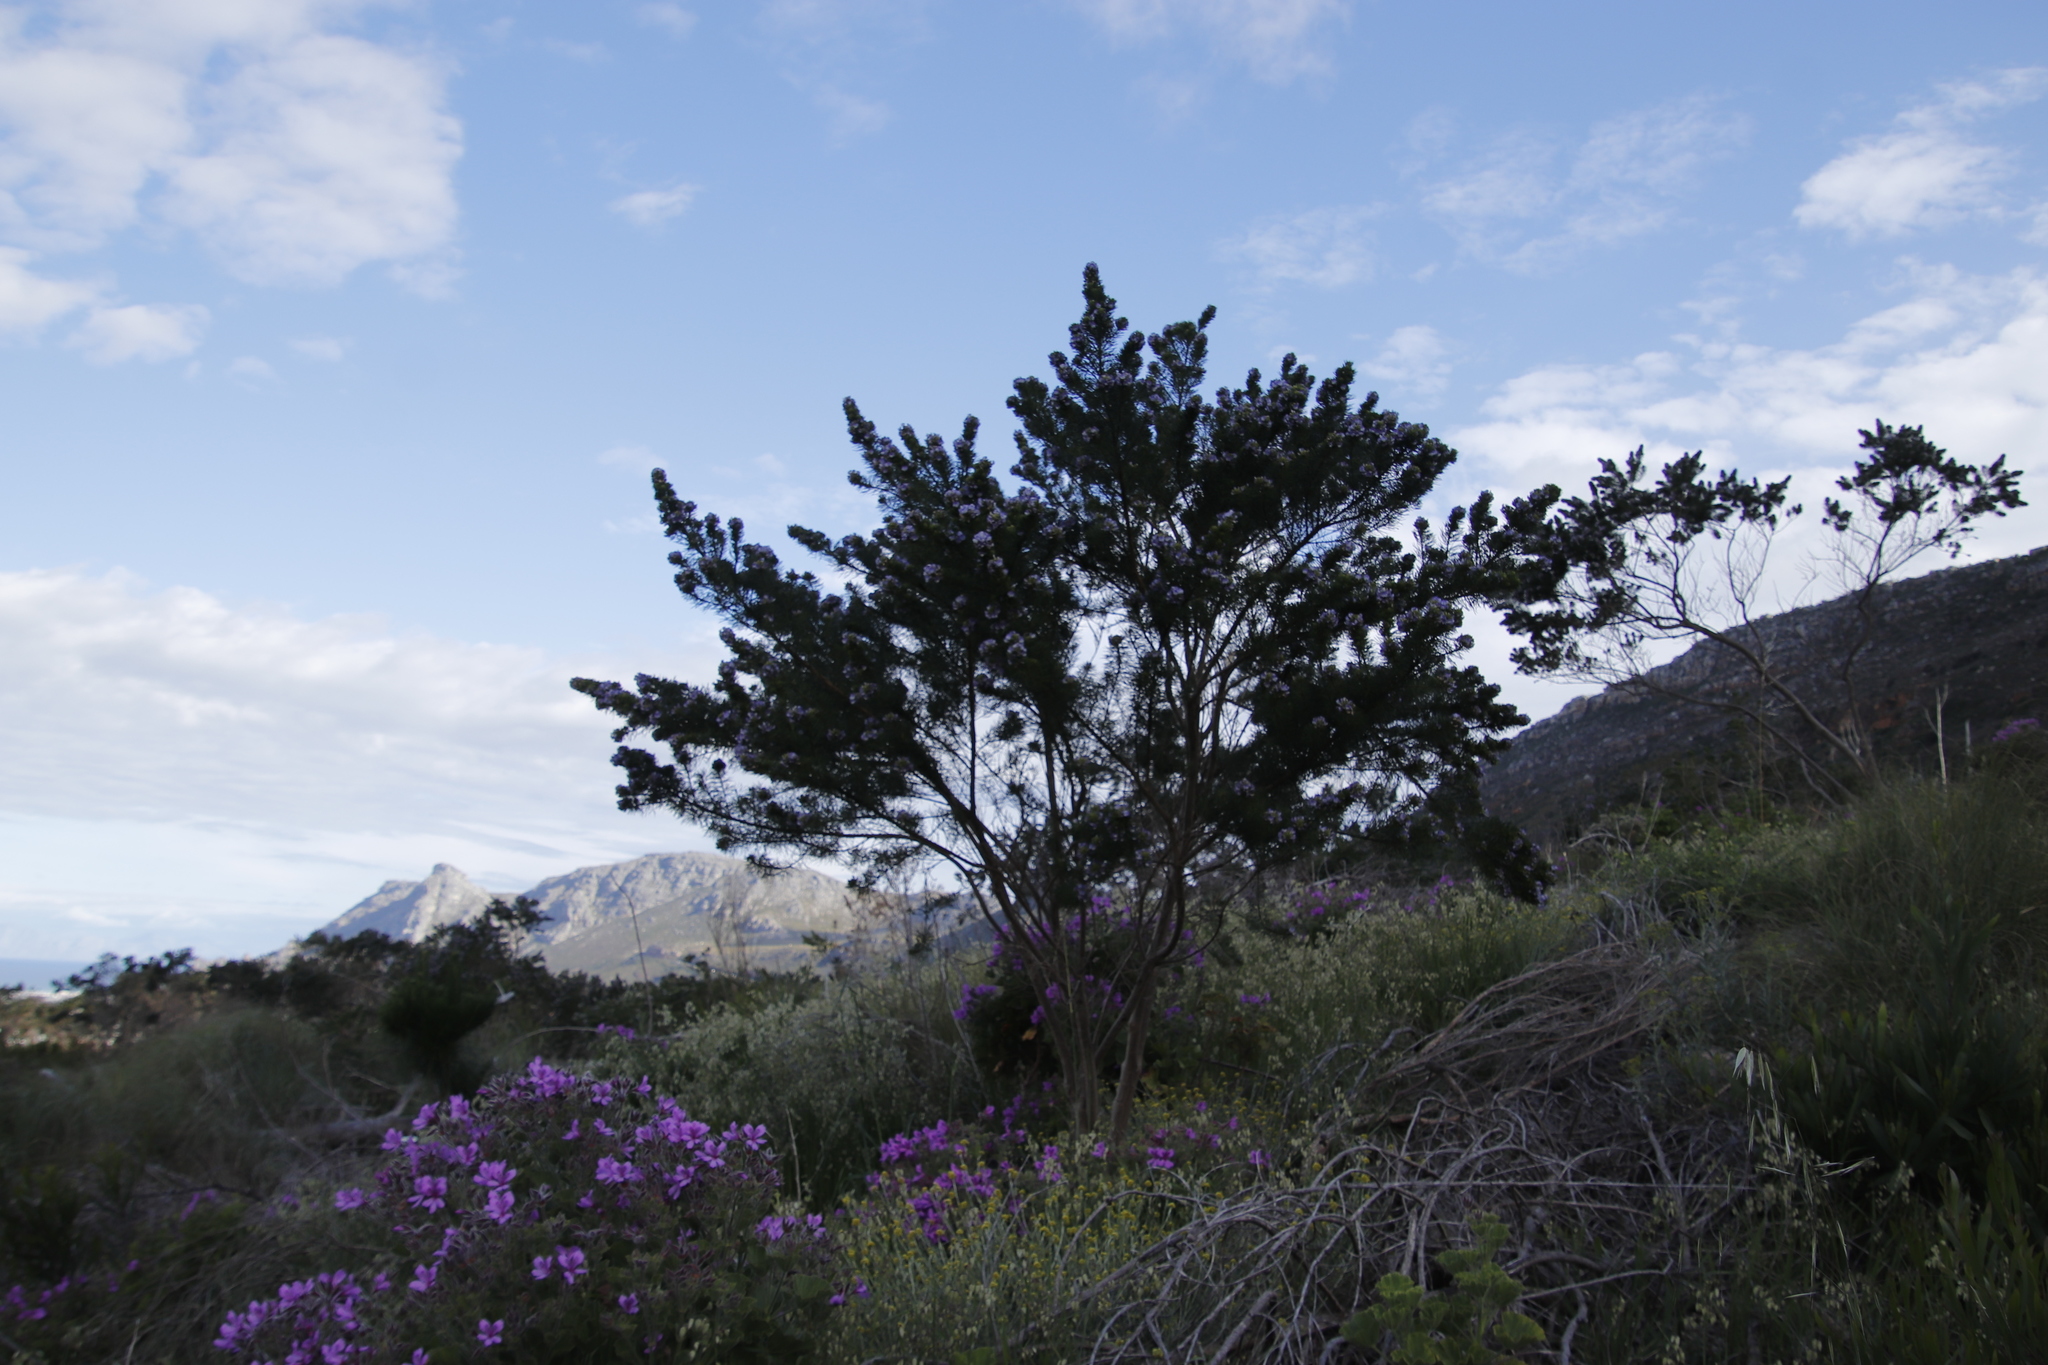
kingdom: Plantae
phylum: Tracheophyta
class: Magnoliopsida
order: Fabales
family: Fabaceae
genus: Psoralea
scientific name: Psoralea pinnata
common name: African scurfpea
